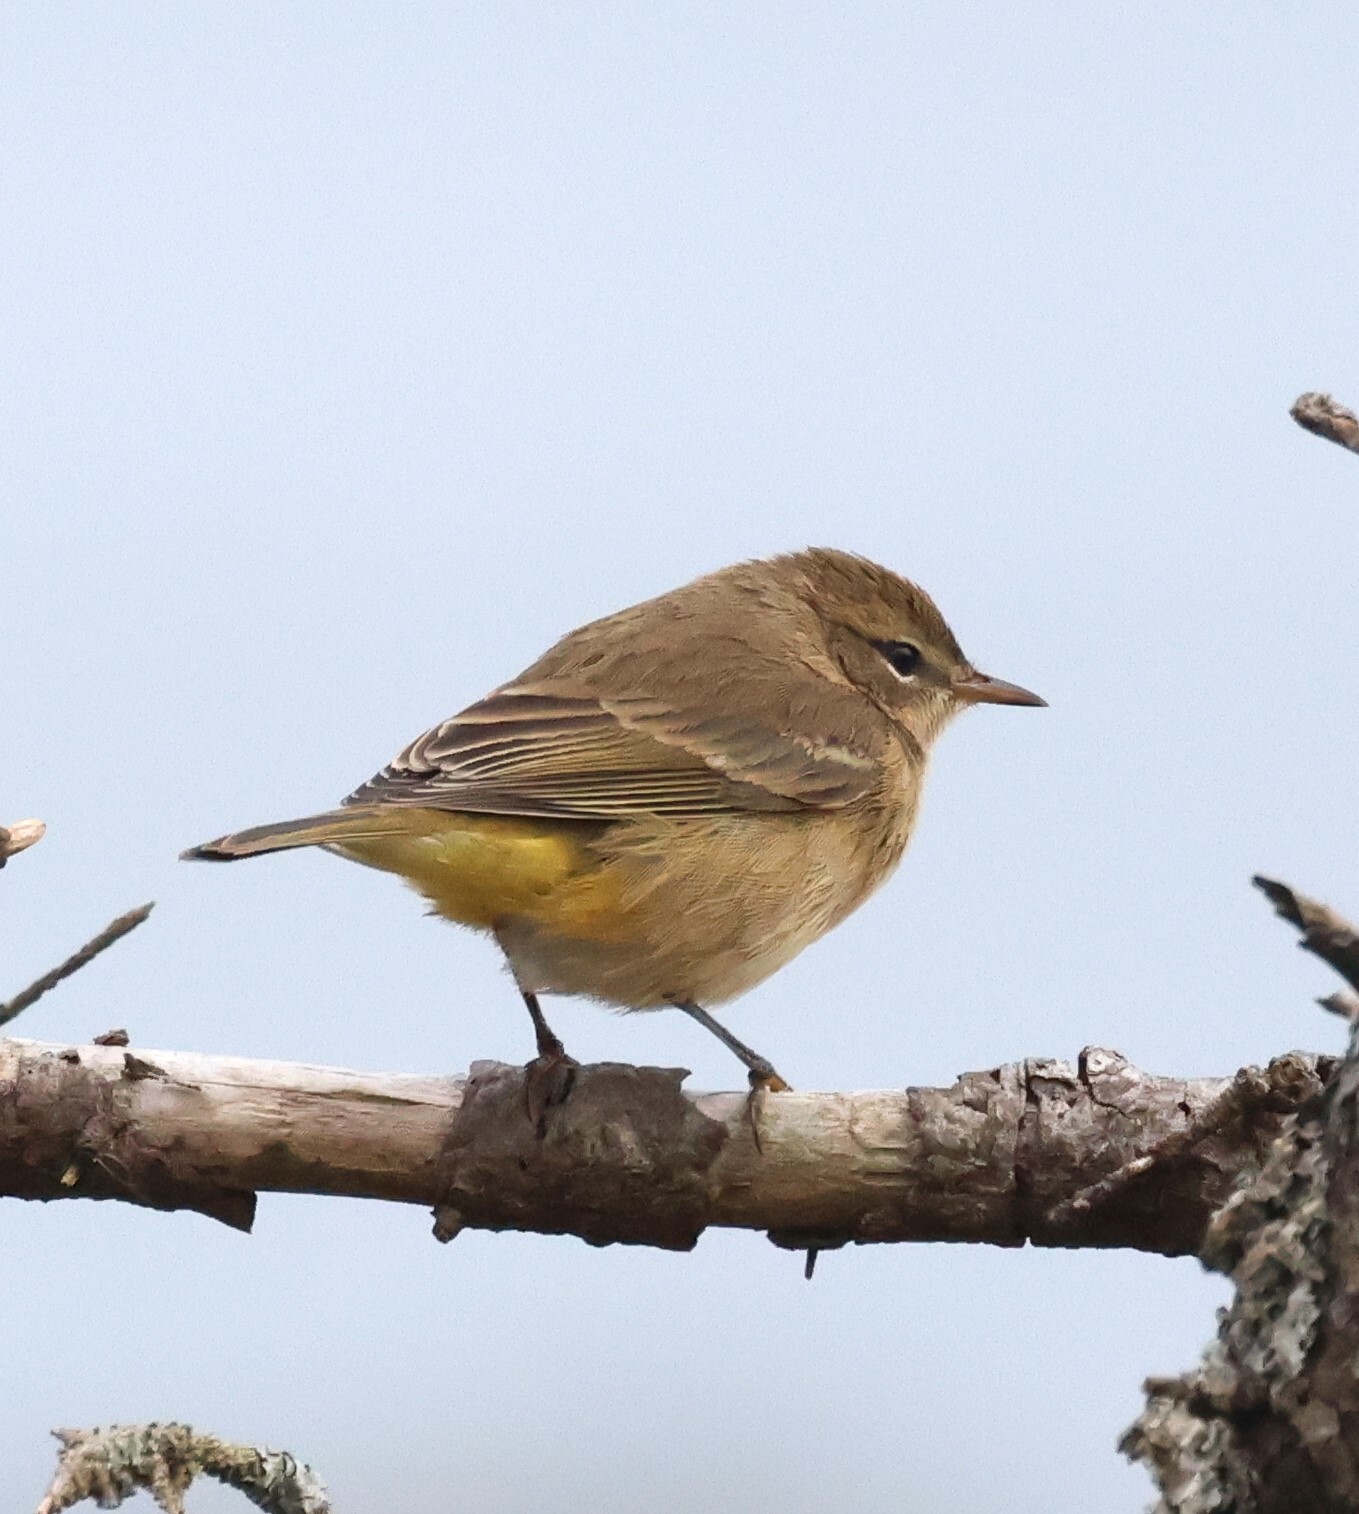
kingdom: Animalia
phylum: Chordata
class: Aves
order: Passeriformes
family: Parulidae
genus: Setophaga
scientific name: Setophaga palmarum
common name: Palm warbler
